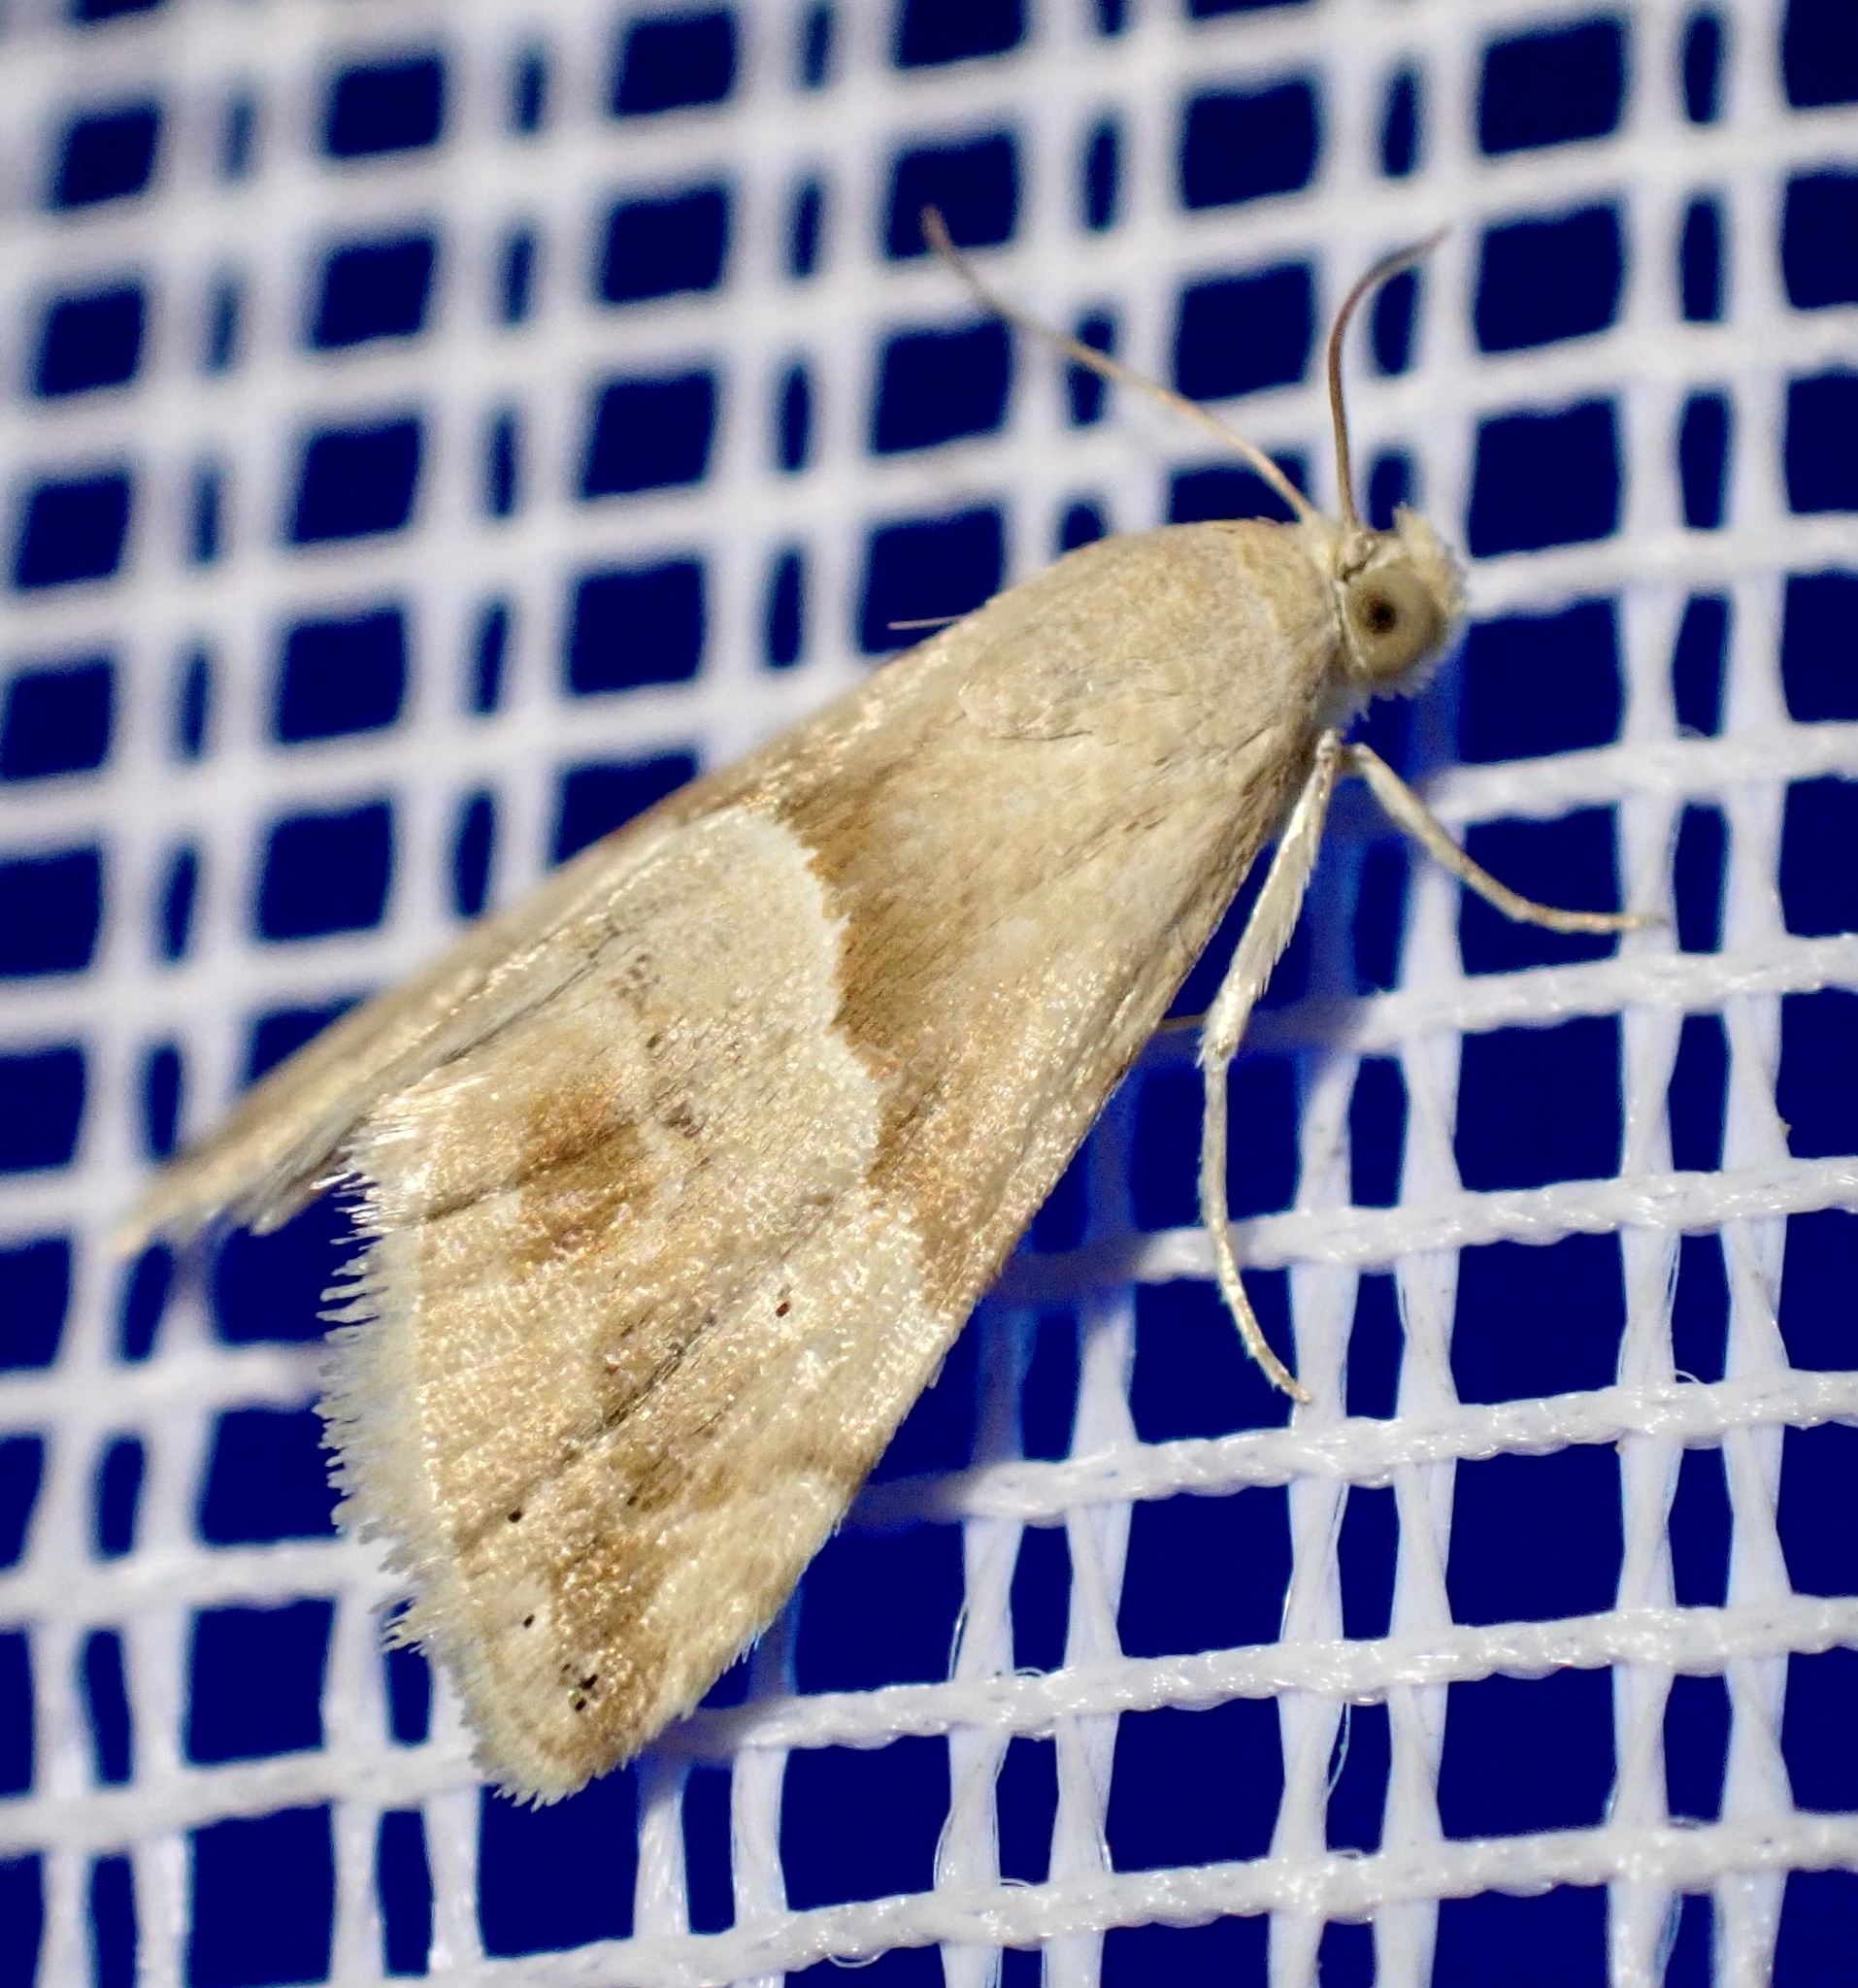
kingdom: Animalia
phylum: Arthropoda
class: Insecta
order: Lepidoptera
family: Noctuidae
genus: Eublemma
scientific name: Eublemma parva
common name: Small marbled
